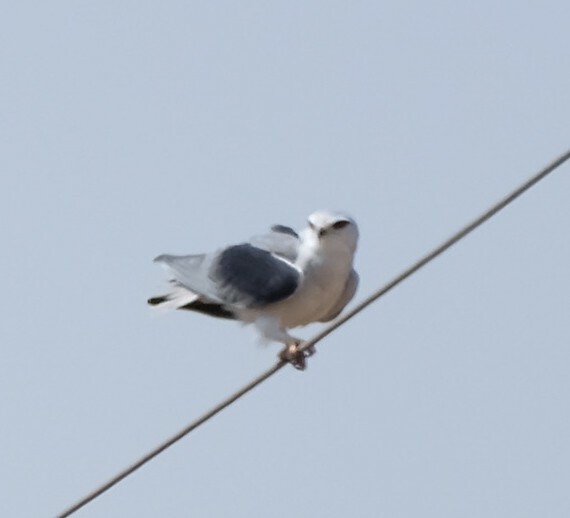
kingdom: Animalia
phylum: Chordata
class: Aves
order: Accipitriformes
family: Accipitridae
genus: Elanus
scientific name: Elanus caeruleus
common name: Black-winged kite
